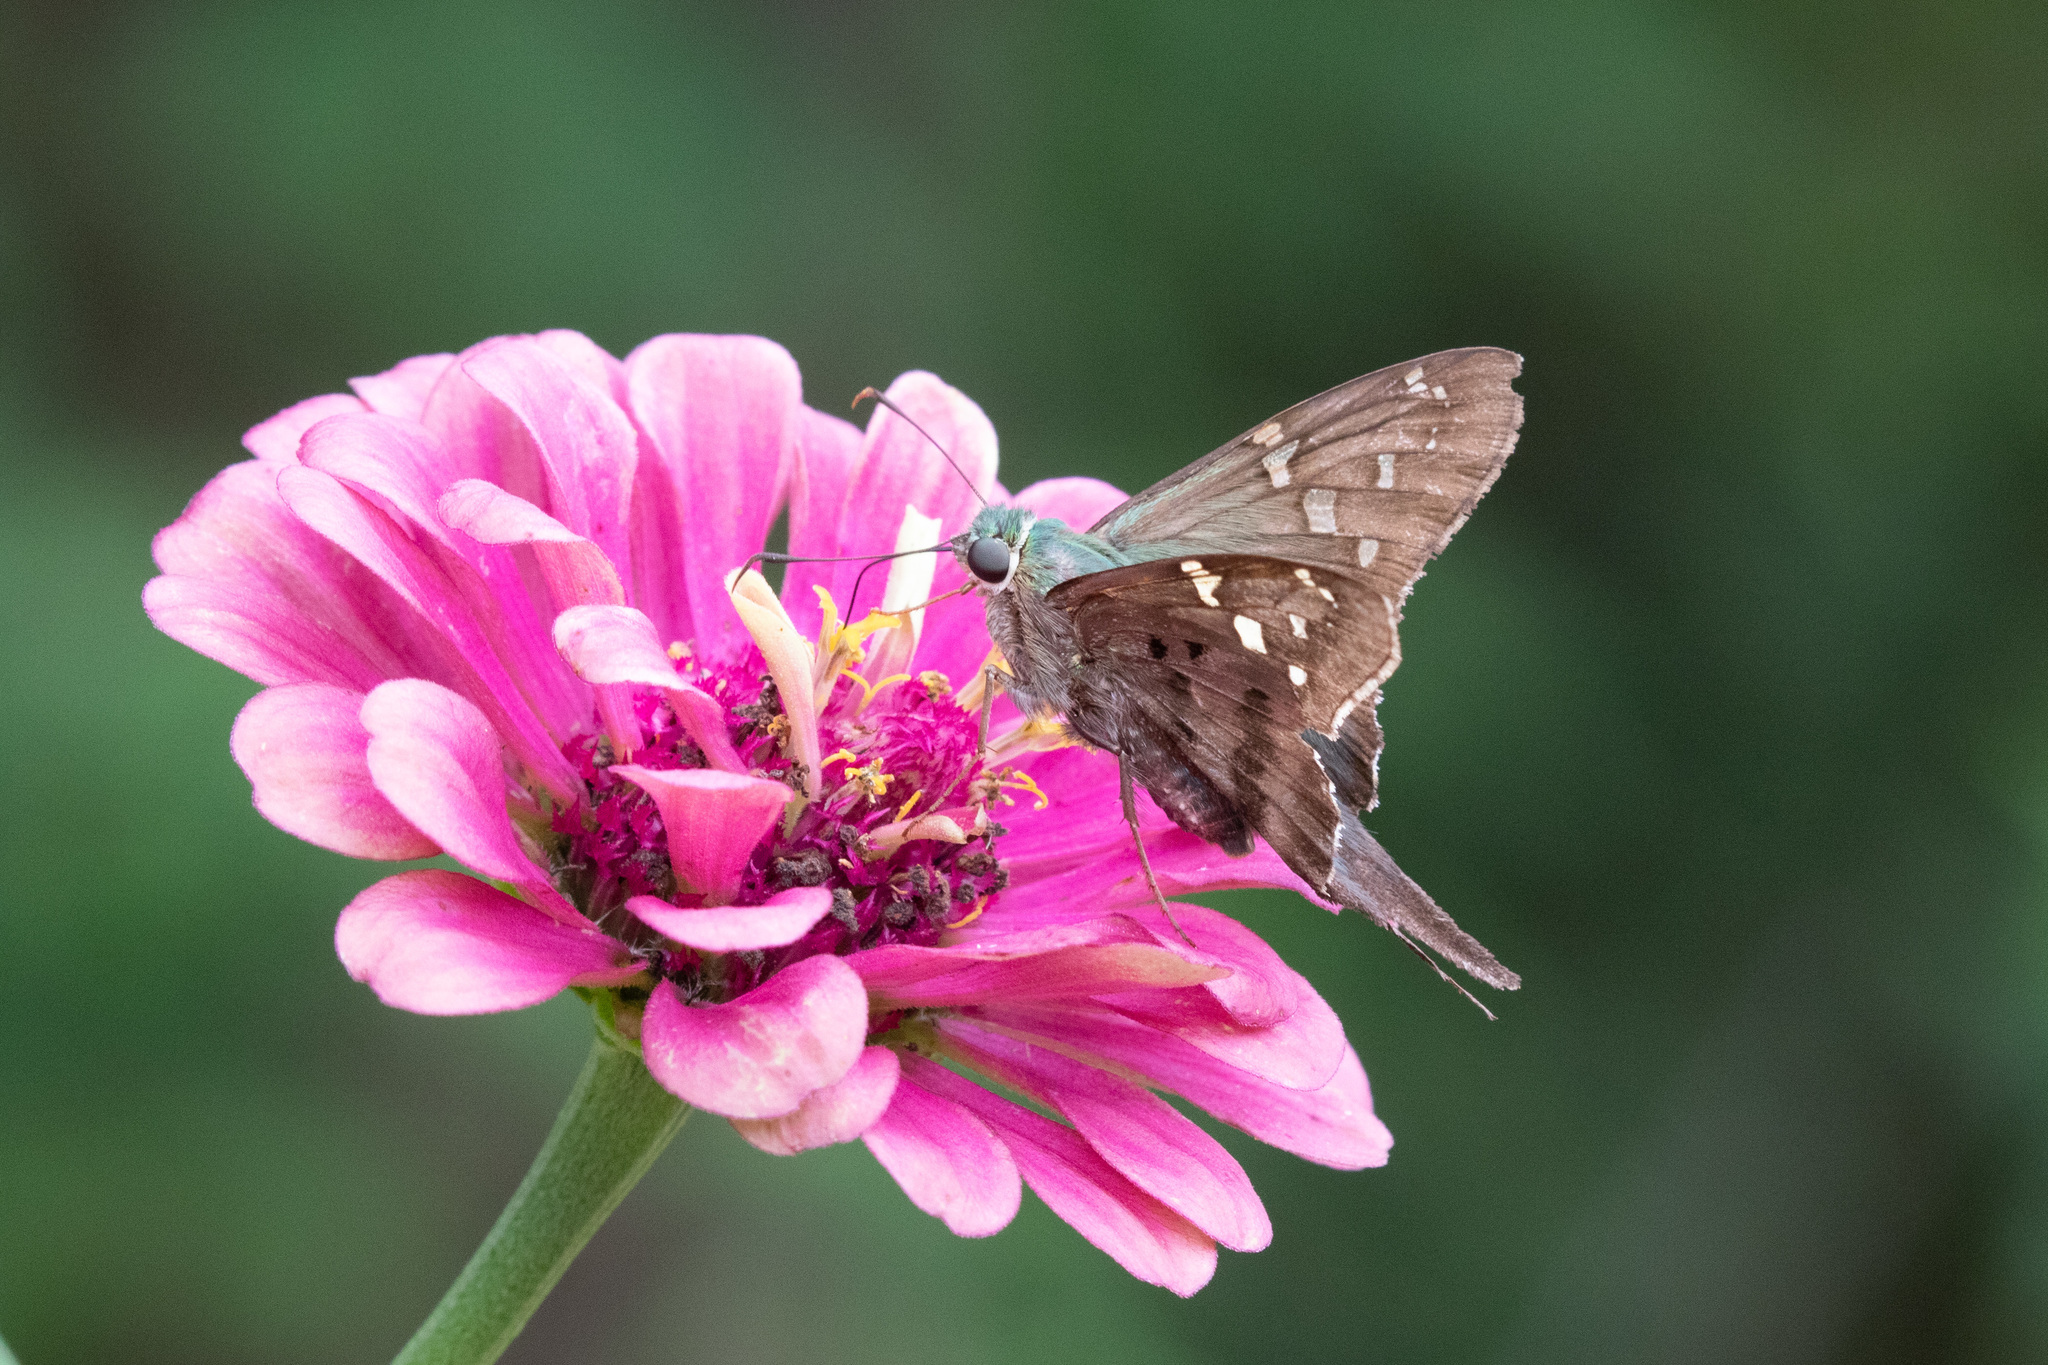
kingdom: Animalia
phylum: Arthropoda
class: Insecta
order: Lepidoptera
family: Hesperiidae
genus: Urbanus
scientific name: Urbanus proteus
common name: Long-tailed skipper
